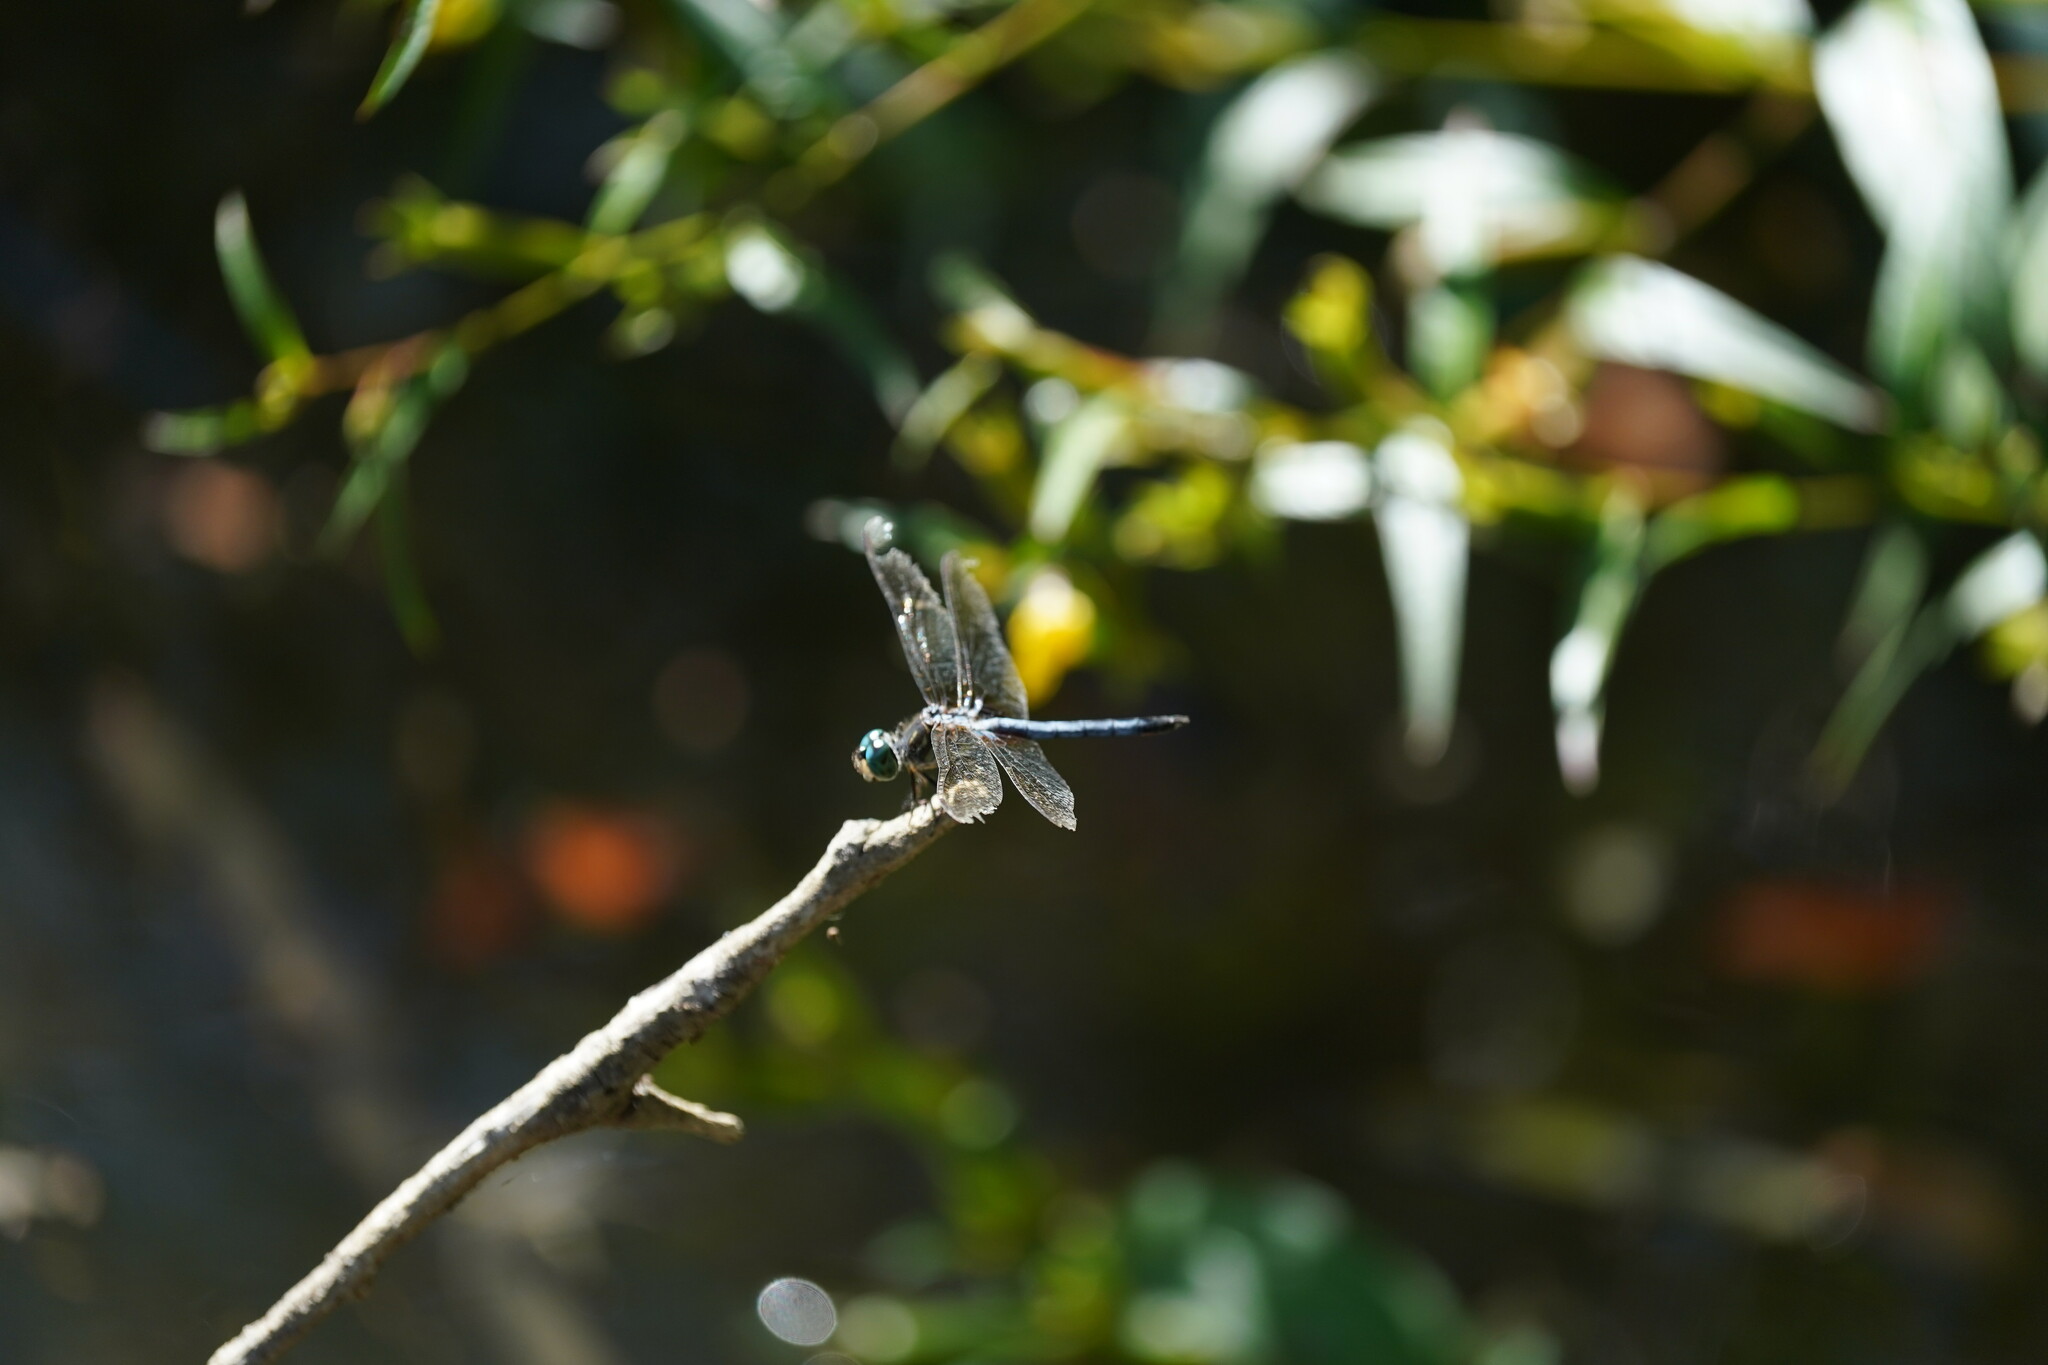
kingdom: Animalia
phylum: Arthropoda
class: Insecta
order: Odonata
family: Libellulidae
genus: Pachydiplax
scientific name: Pachydiplax longipennis
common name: Blue dasher
